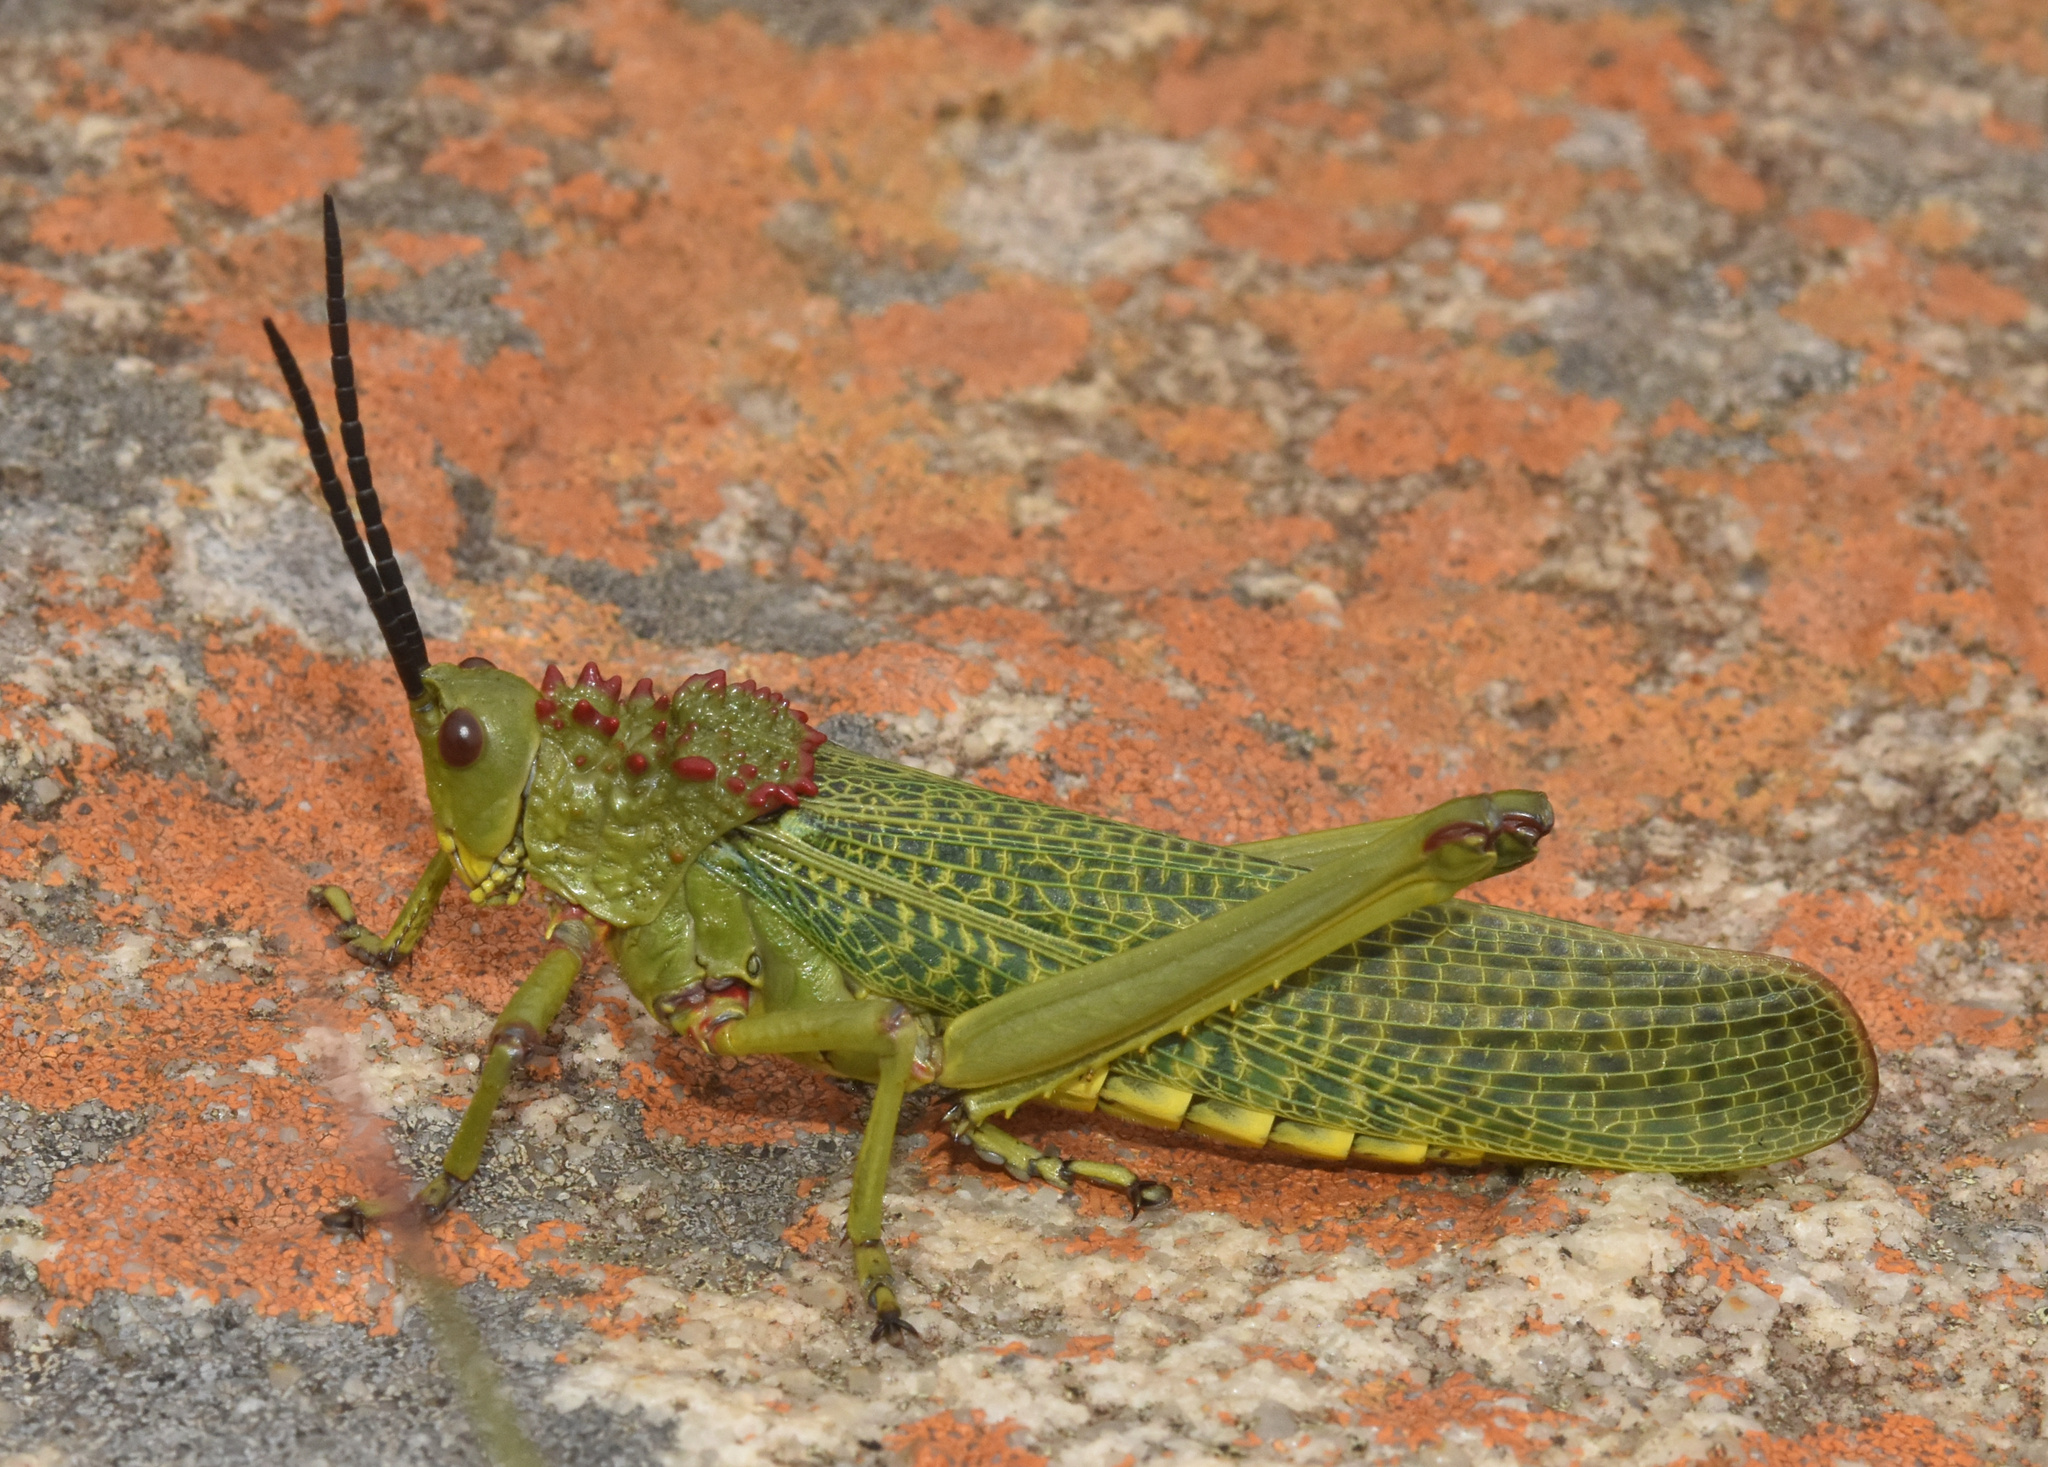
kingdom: Animalia
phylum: Arthropoda
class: Insecta
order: Orthoptera
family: Pyrgomorphidae
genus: Phymateus
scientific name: Phymateus viridipes
